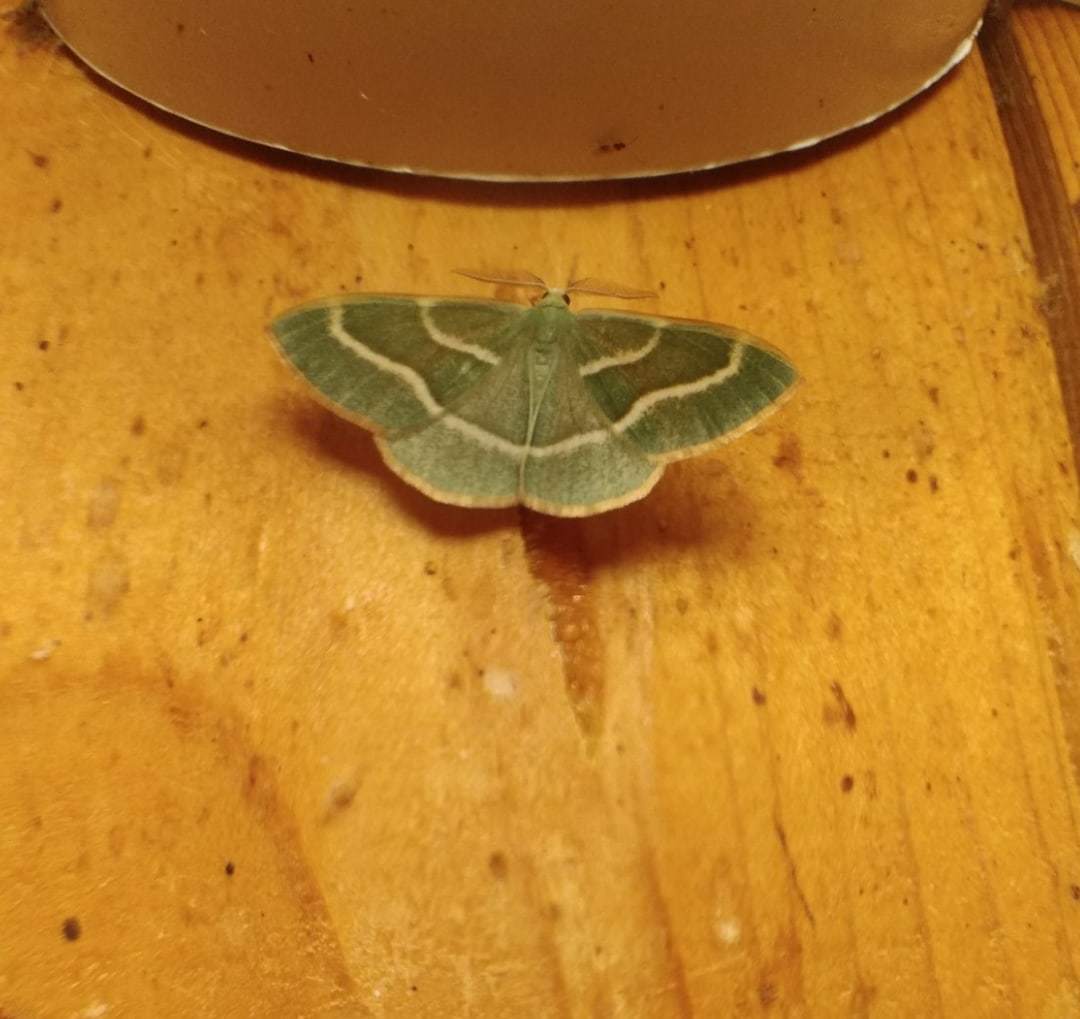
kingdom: Animalia
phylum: Arthropoda
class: Insecta
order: Lepidoptera
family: Geometridae
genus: Hylaea
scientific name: Hylaea fasciaria
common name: Barred red
